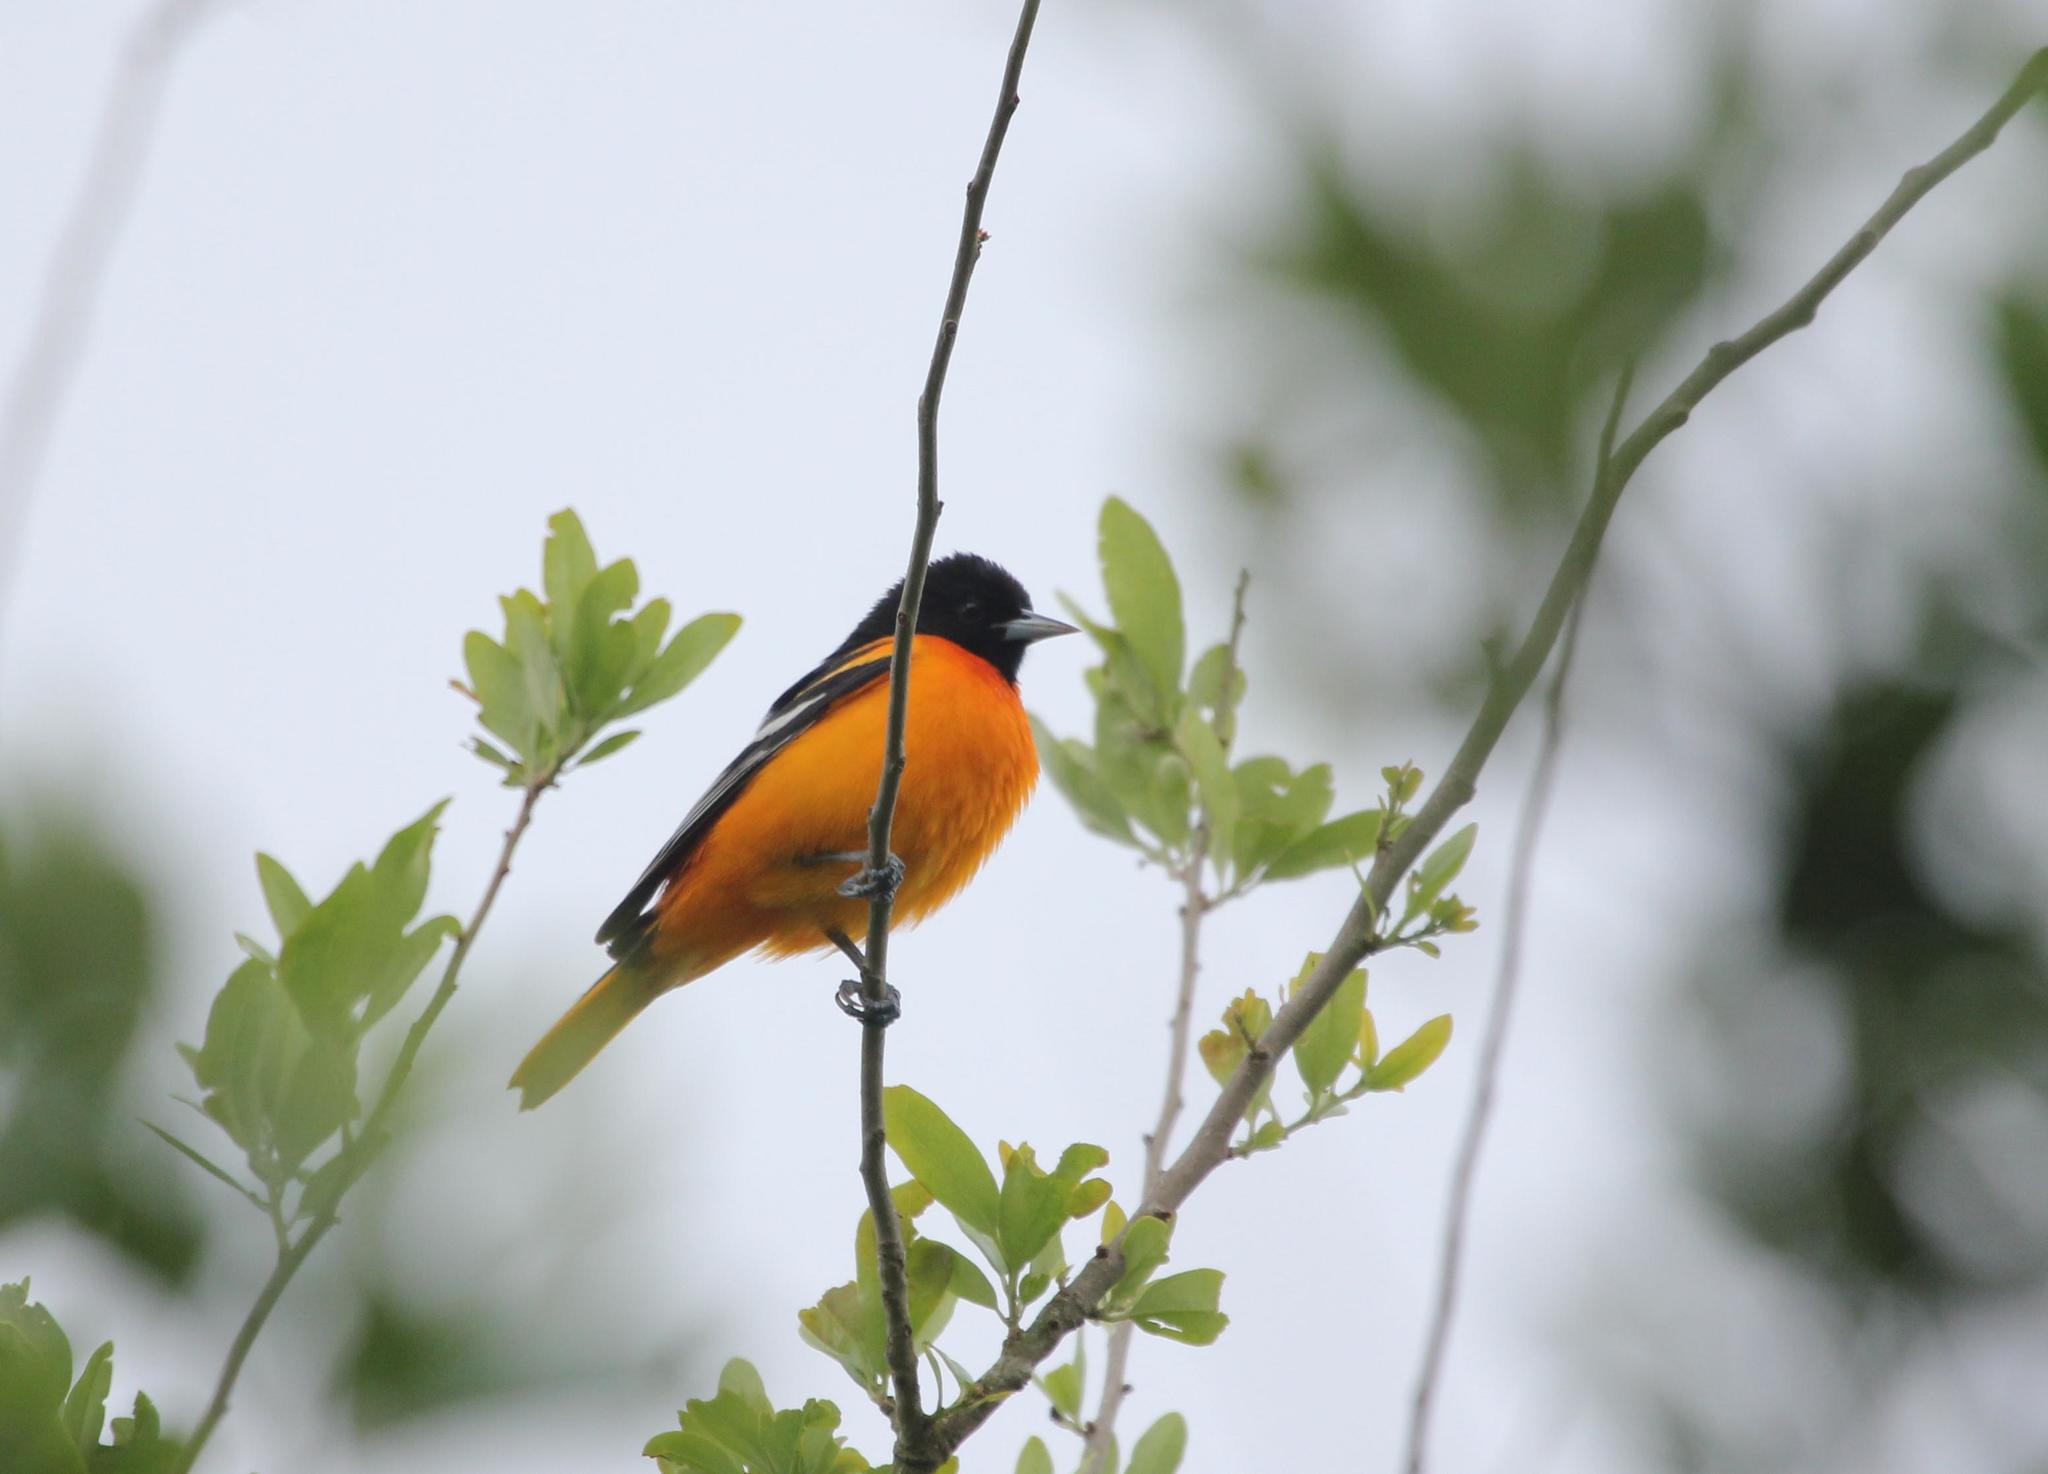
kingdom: Animalia
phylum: Chordata
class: Aves
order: Passeriformes
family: Icteridae
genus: Icterus
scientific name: Icterus galbula
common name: Baltimore oriole
